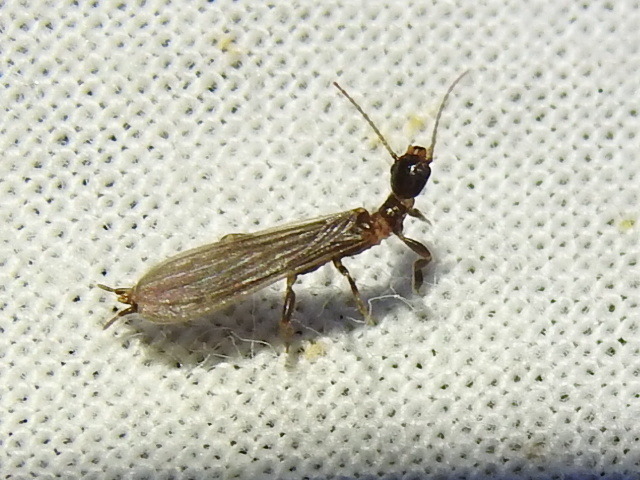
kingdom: Animalia
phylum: Arthropoda
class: Insecta
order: Embioptera
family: Oligotomidae
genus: Oligotoma
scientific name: Oligotoma nigra
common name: Black webspinner
